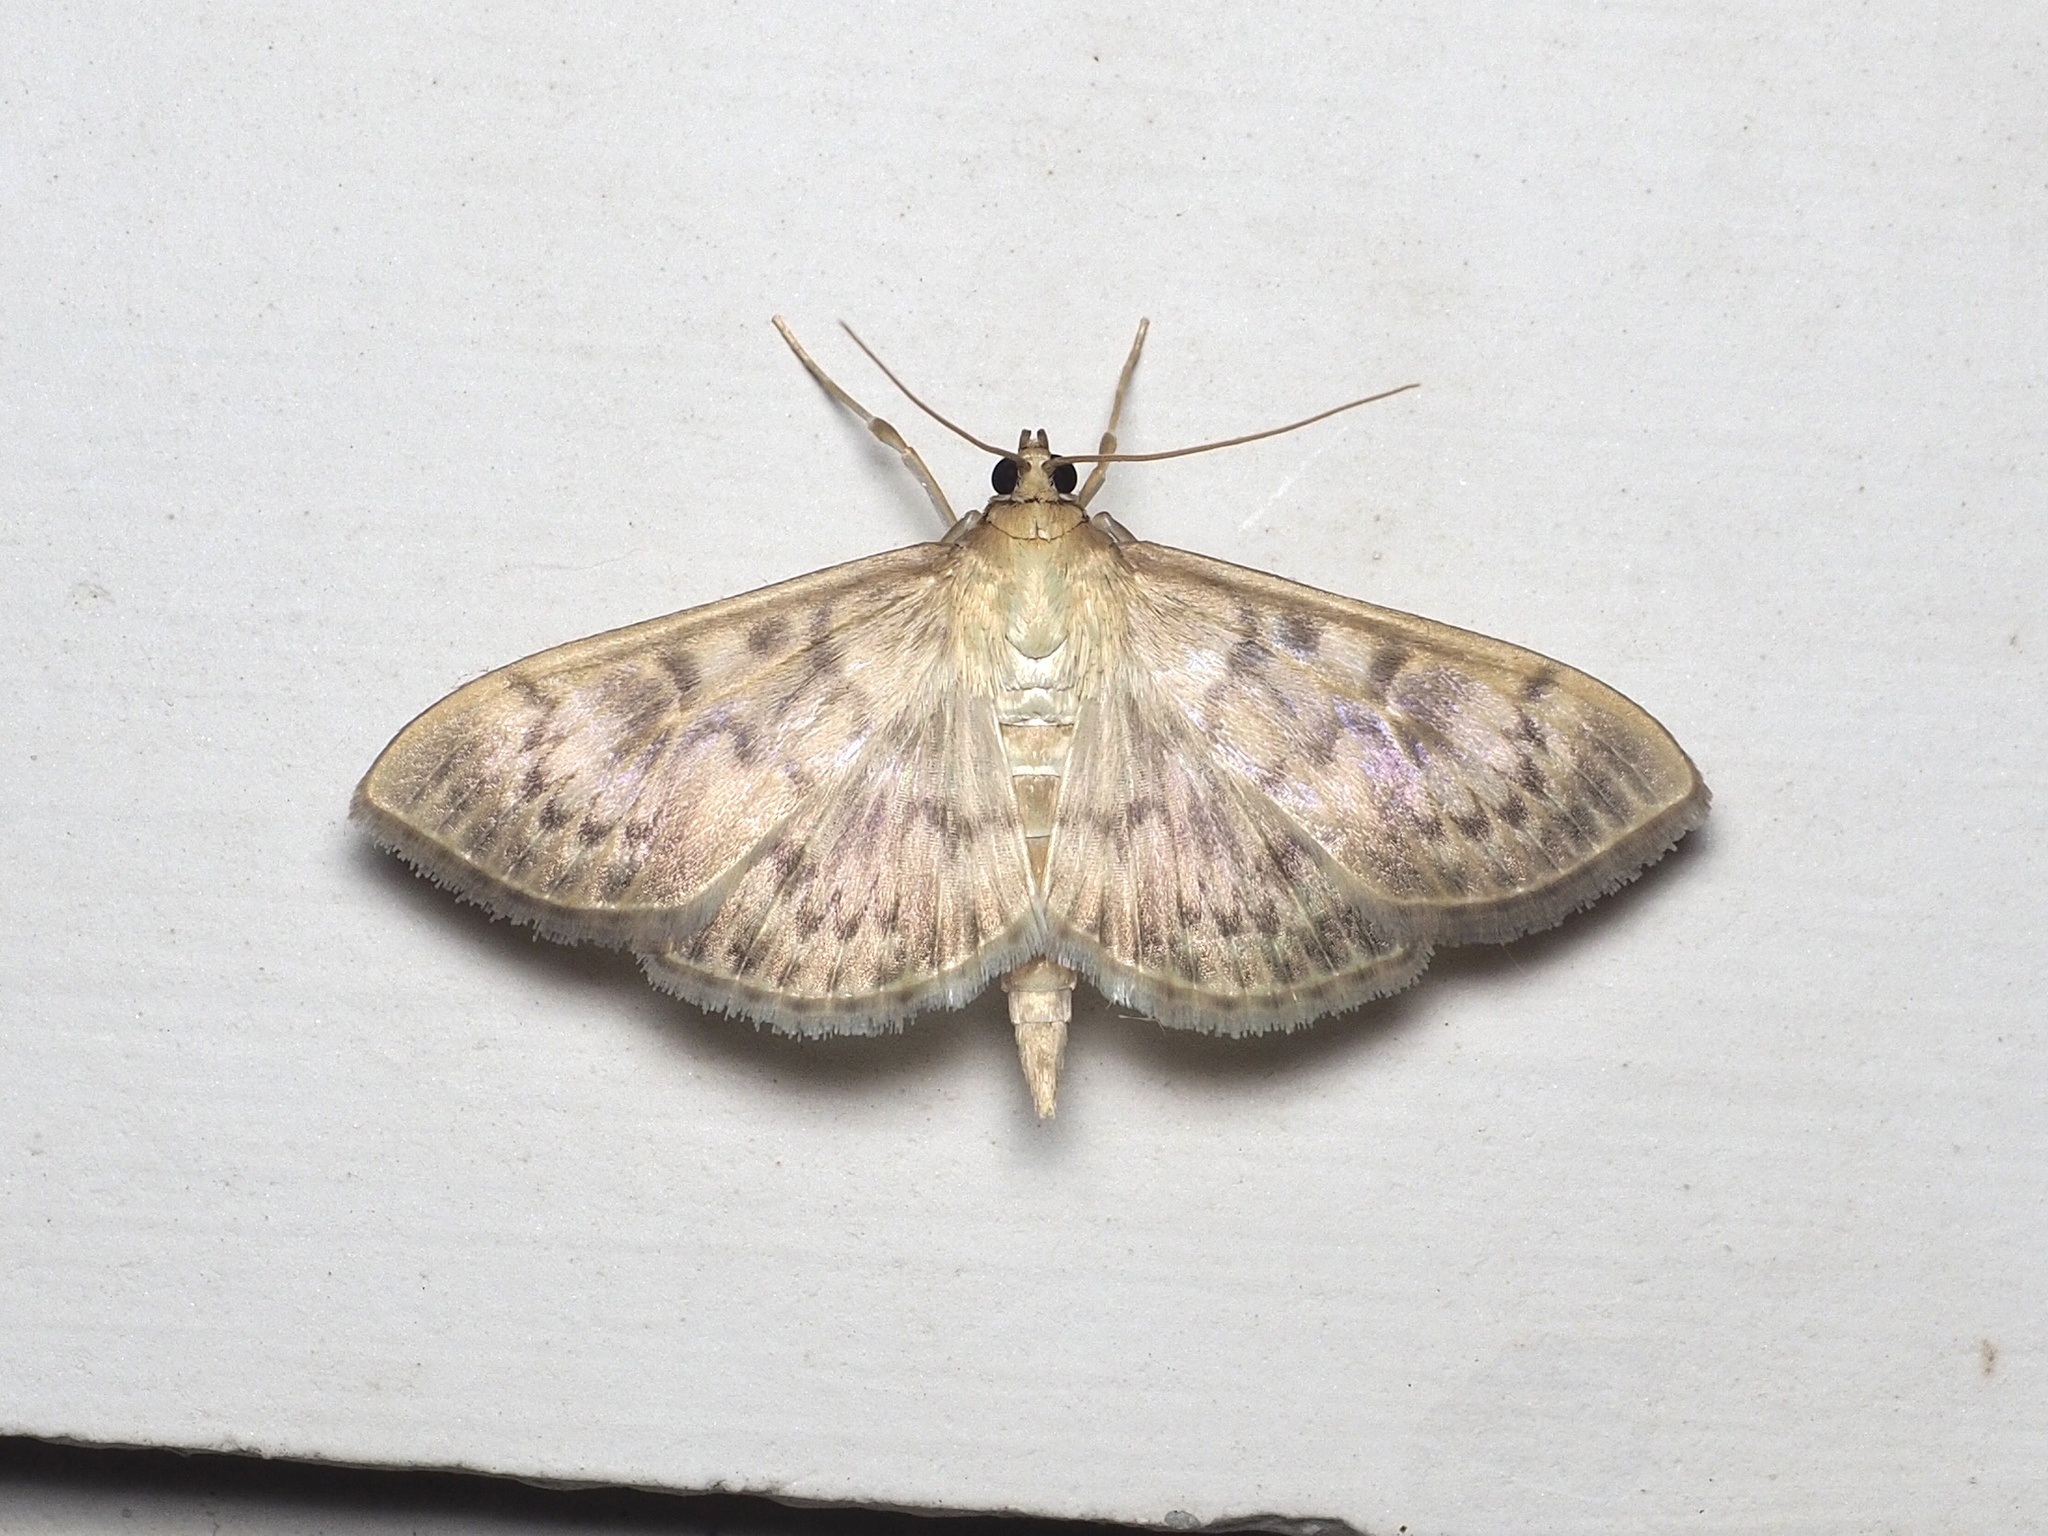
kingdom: Animalia
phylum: Arthropoda
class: Insecta
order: Lepidoptera
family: Crambidae
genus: Patania
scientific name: Patania ruralis
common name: Mother of pearl
